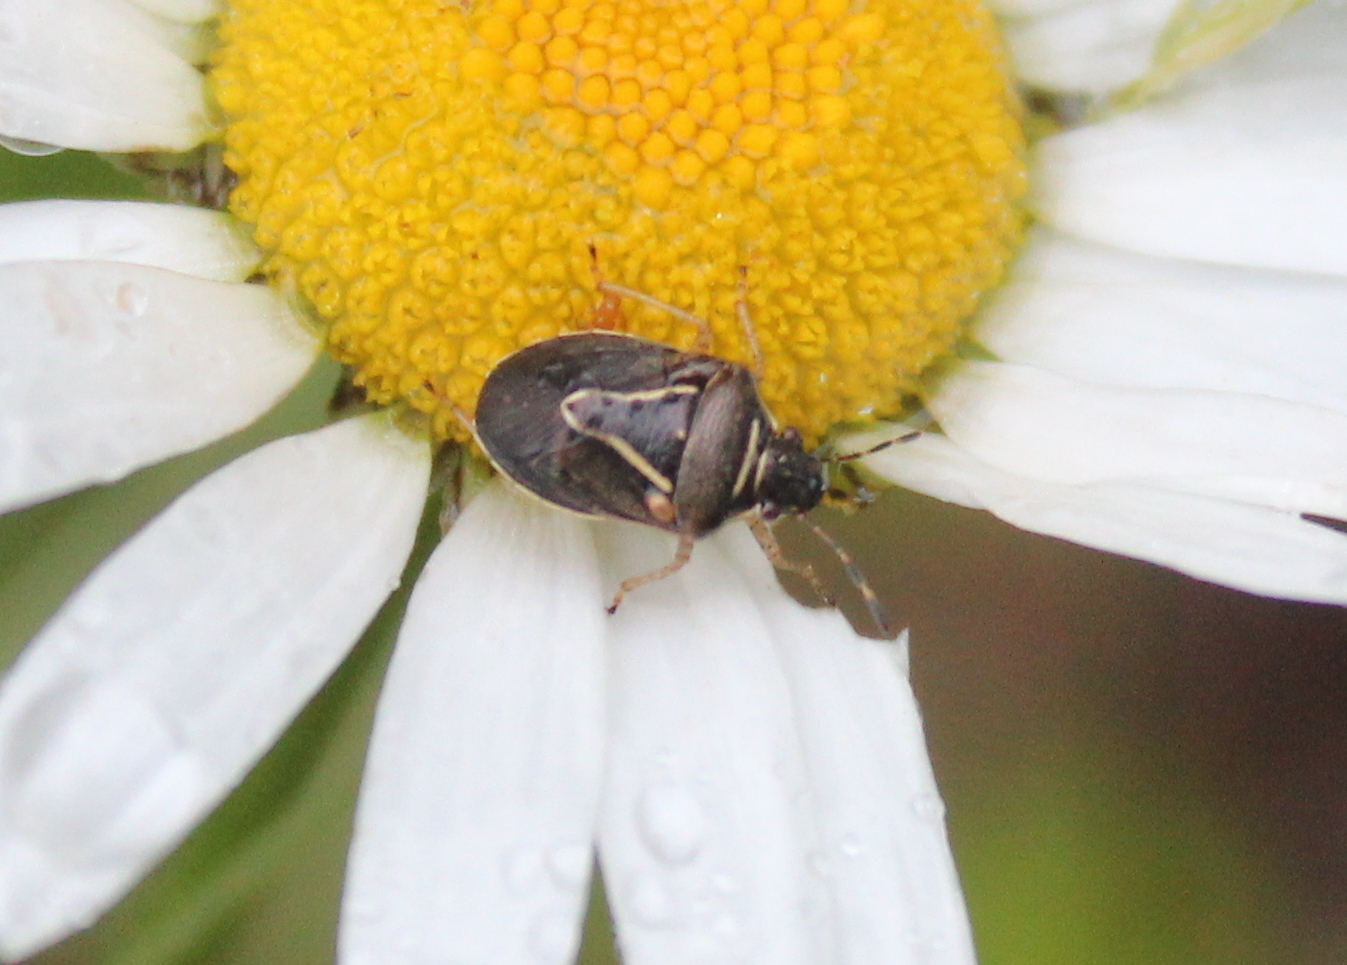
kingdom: Animalia
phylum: Arthropoda
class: Insecta
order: Hemiptera
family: Pentatomidae
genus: Mormidea
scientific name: Mormidea lugens
